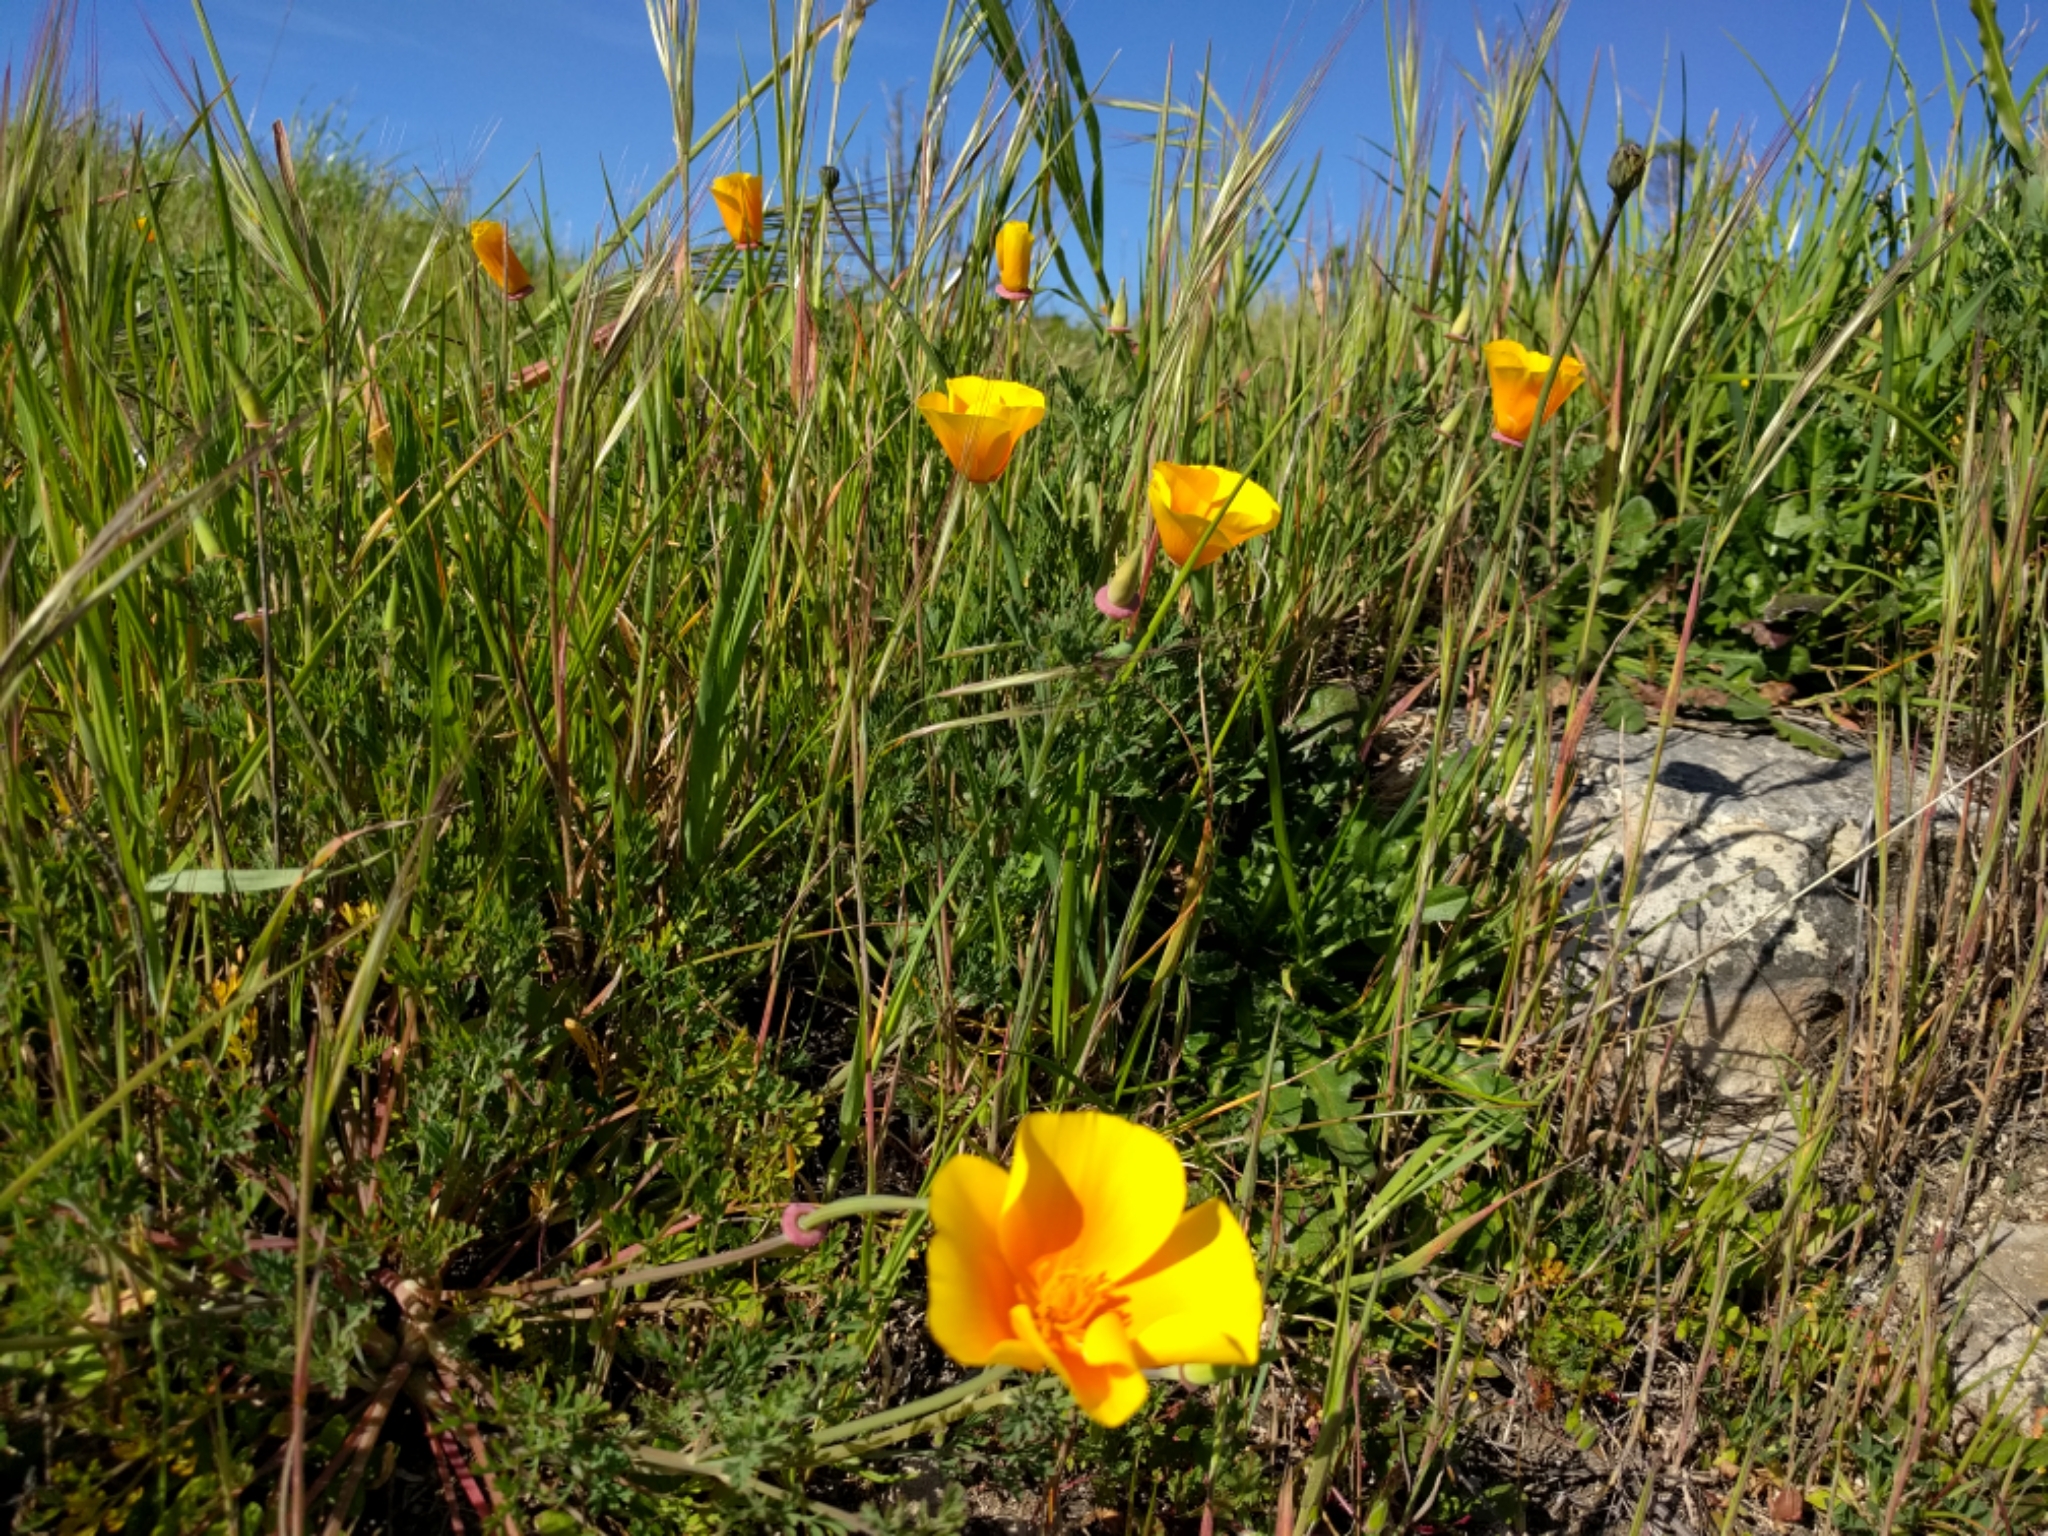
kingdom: Plantae
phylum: Tracheophyta
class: Magnoliopsida
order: Ranunculales
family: Papaveraceae
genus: Eschscholzia
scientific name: Eschscholzia californica
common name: California poppy
